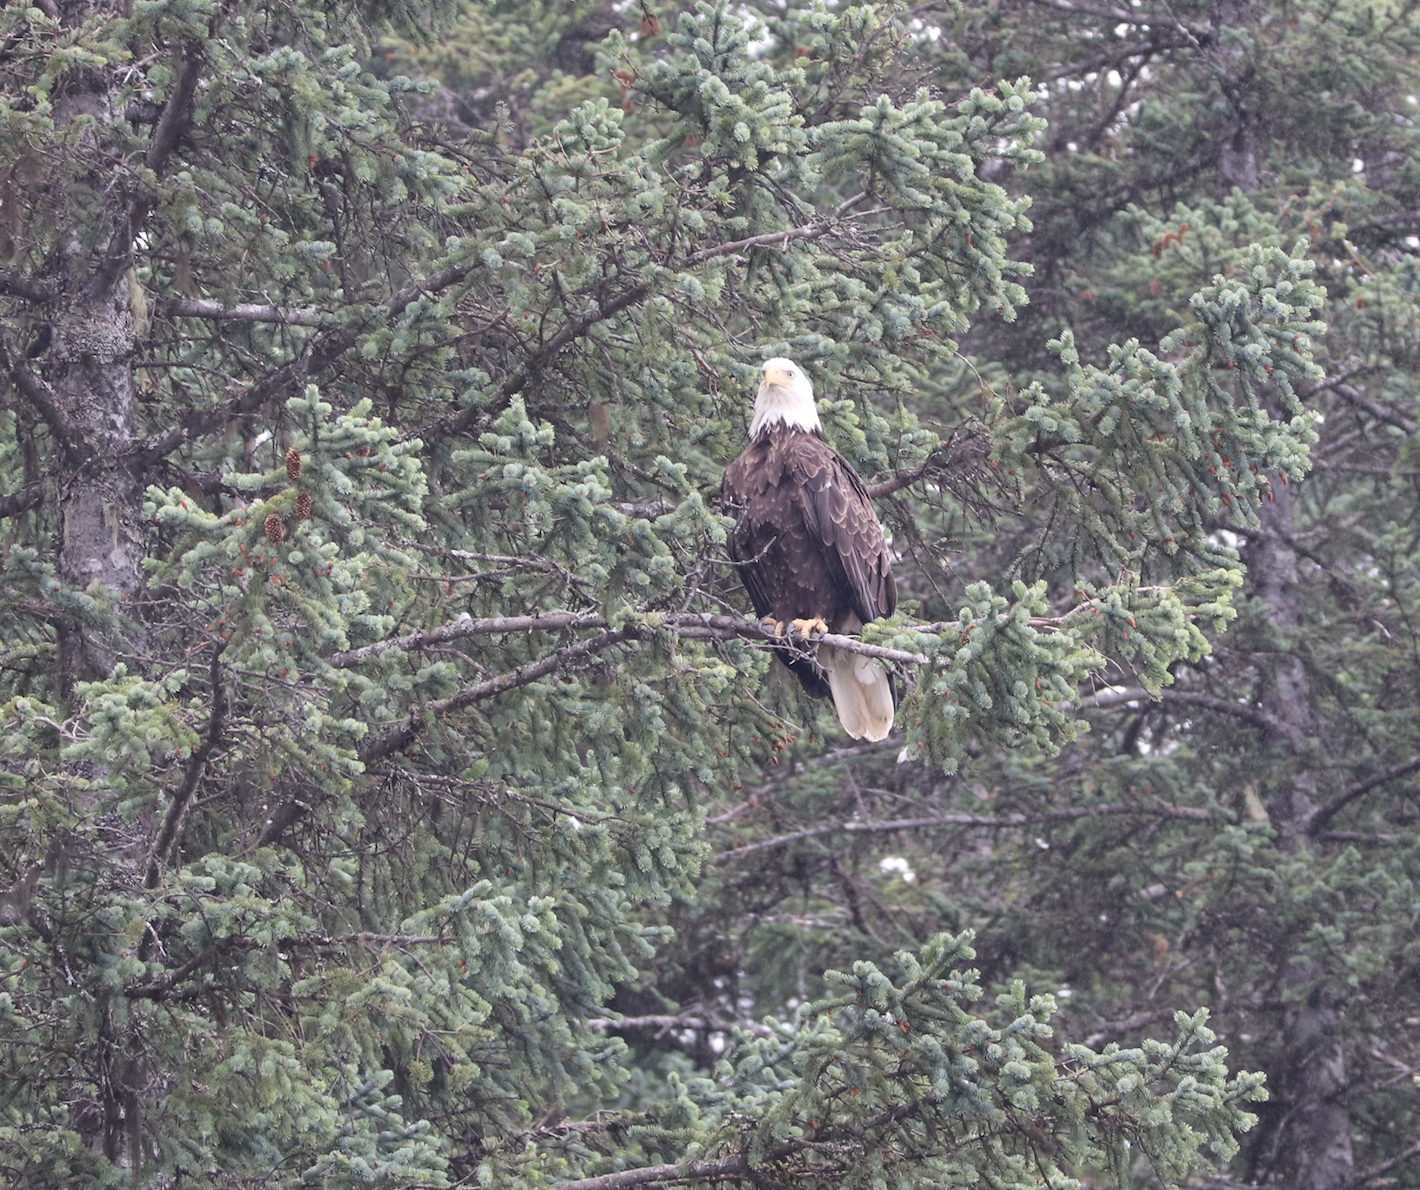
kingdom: Animalia
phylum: Chordata
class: Aves
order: Accipitriformes
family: Accipitridae
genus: Haliaeetus
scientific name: Haliaeetus leucocephalus
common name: Bald eagle
